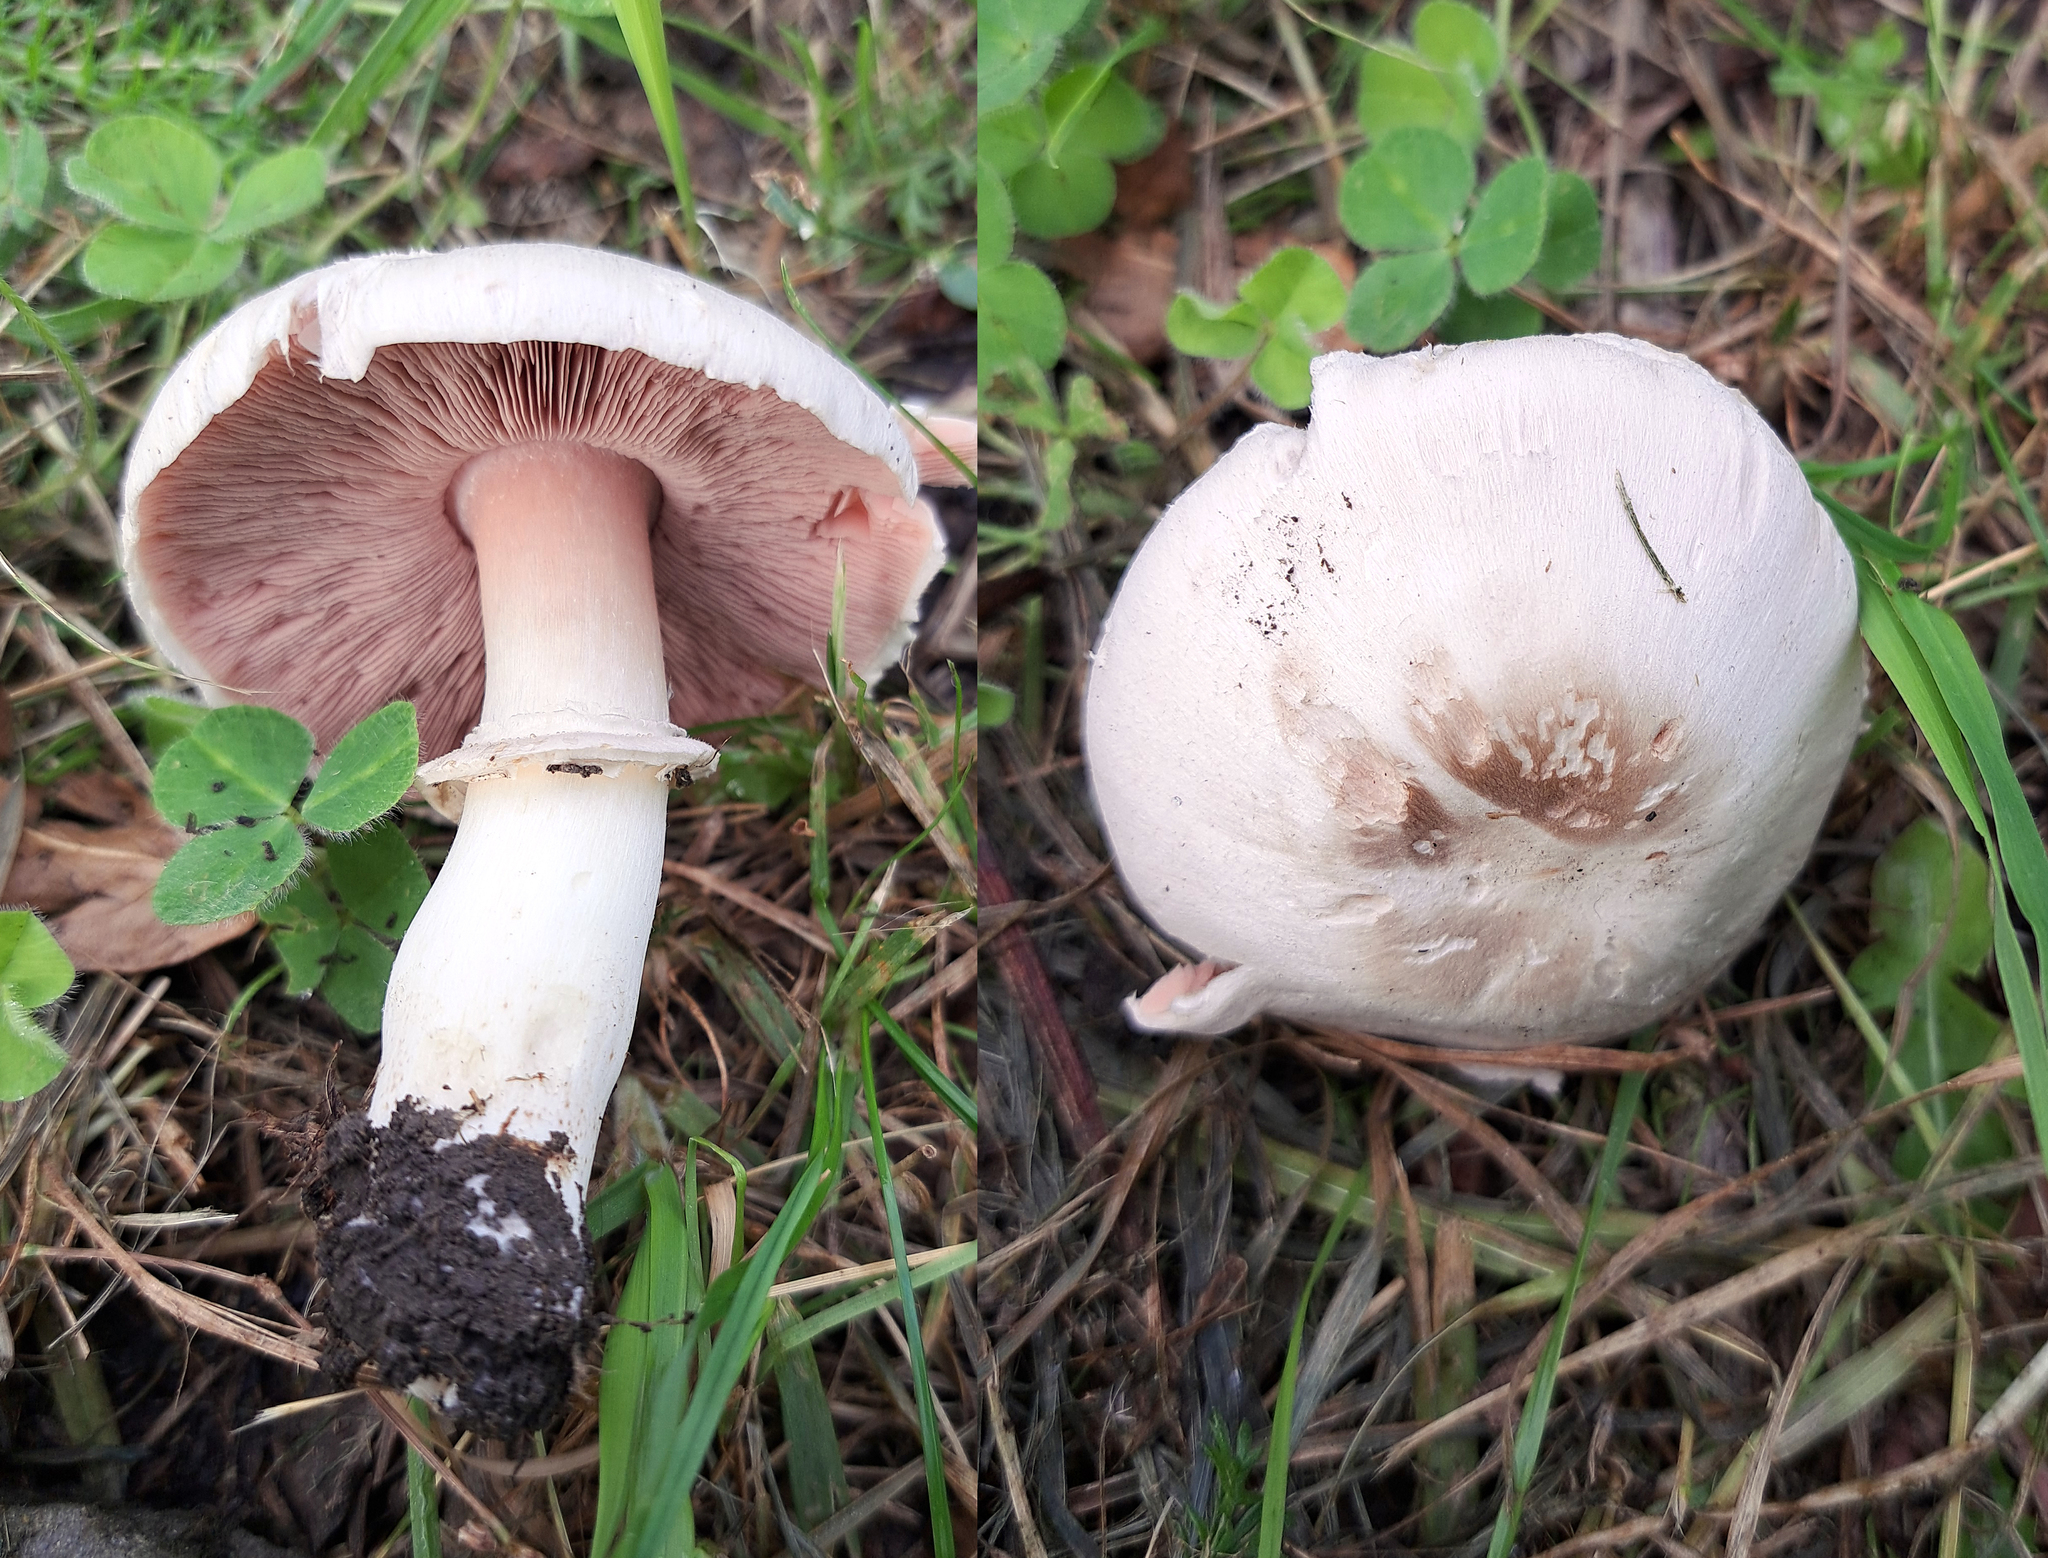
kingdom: Fungi
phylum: Basidiomycota
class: Agaricomycetes
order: Agaricales
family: Agaricaceae
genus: Agaricus
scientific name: Agaricus californicus
